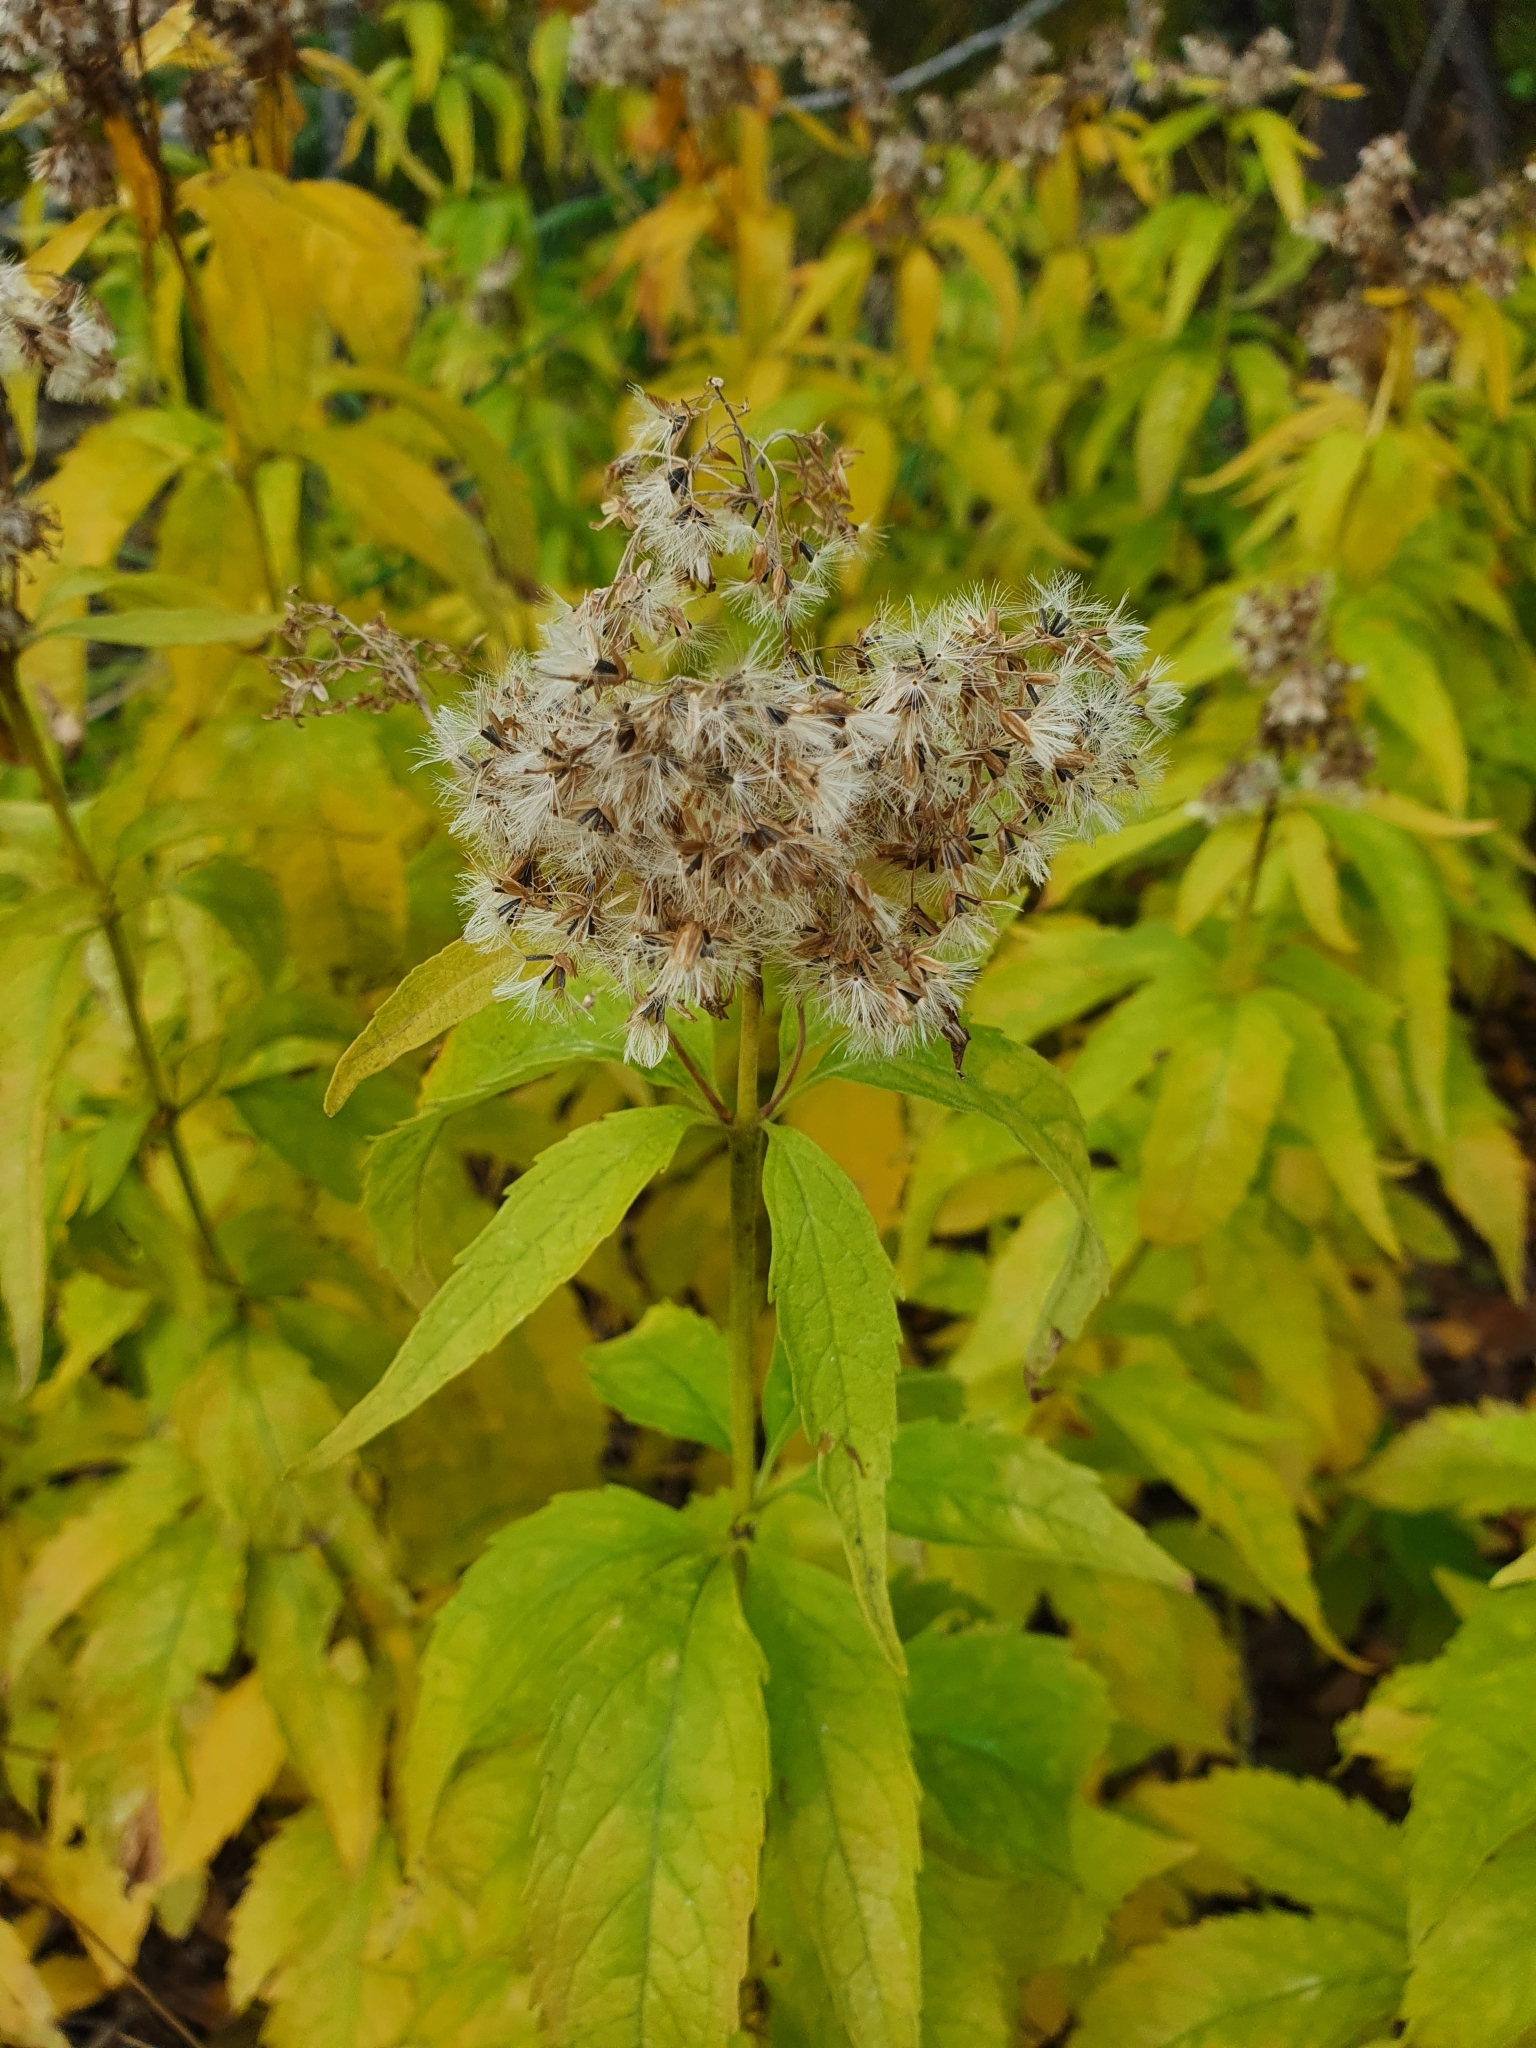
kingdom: Plantae
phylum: Tracheophyta
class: Magnoliopsida
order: Asterales
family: Asteraceae
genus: Eupatorium
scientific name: Eupatorium cannabinum
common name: Hemp-agrimony
